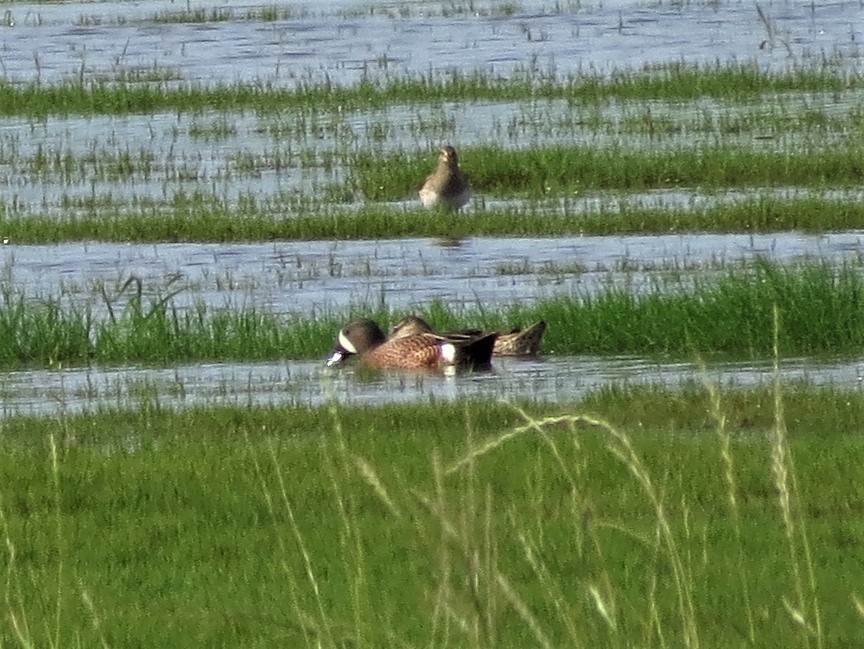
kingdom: Animalia
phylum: Chordata
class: Aves
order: Anseriformes
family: Anatidae
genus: Spatula
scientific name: Spatula discors
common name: Blue-winged teal
